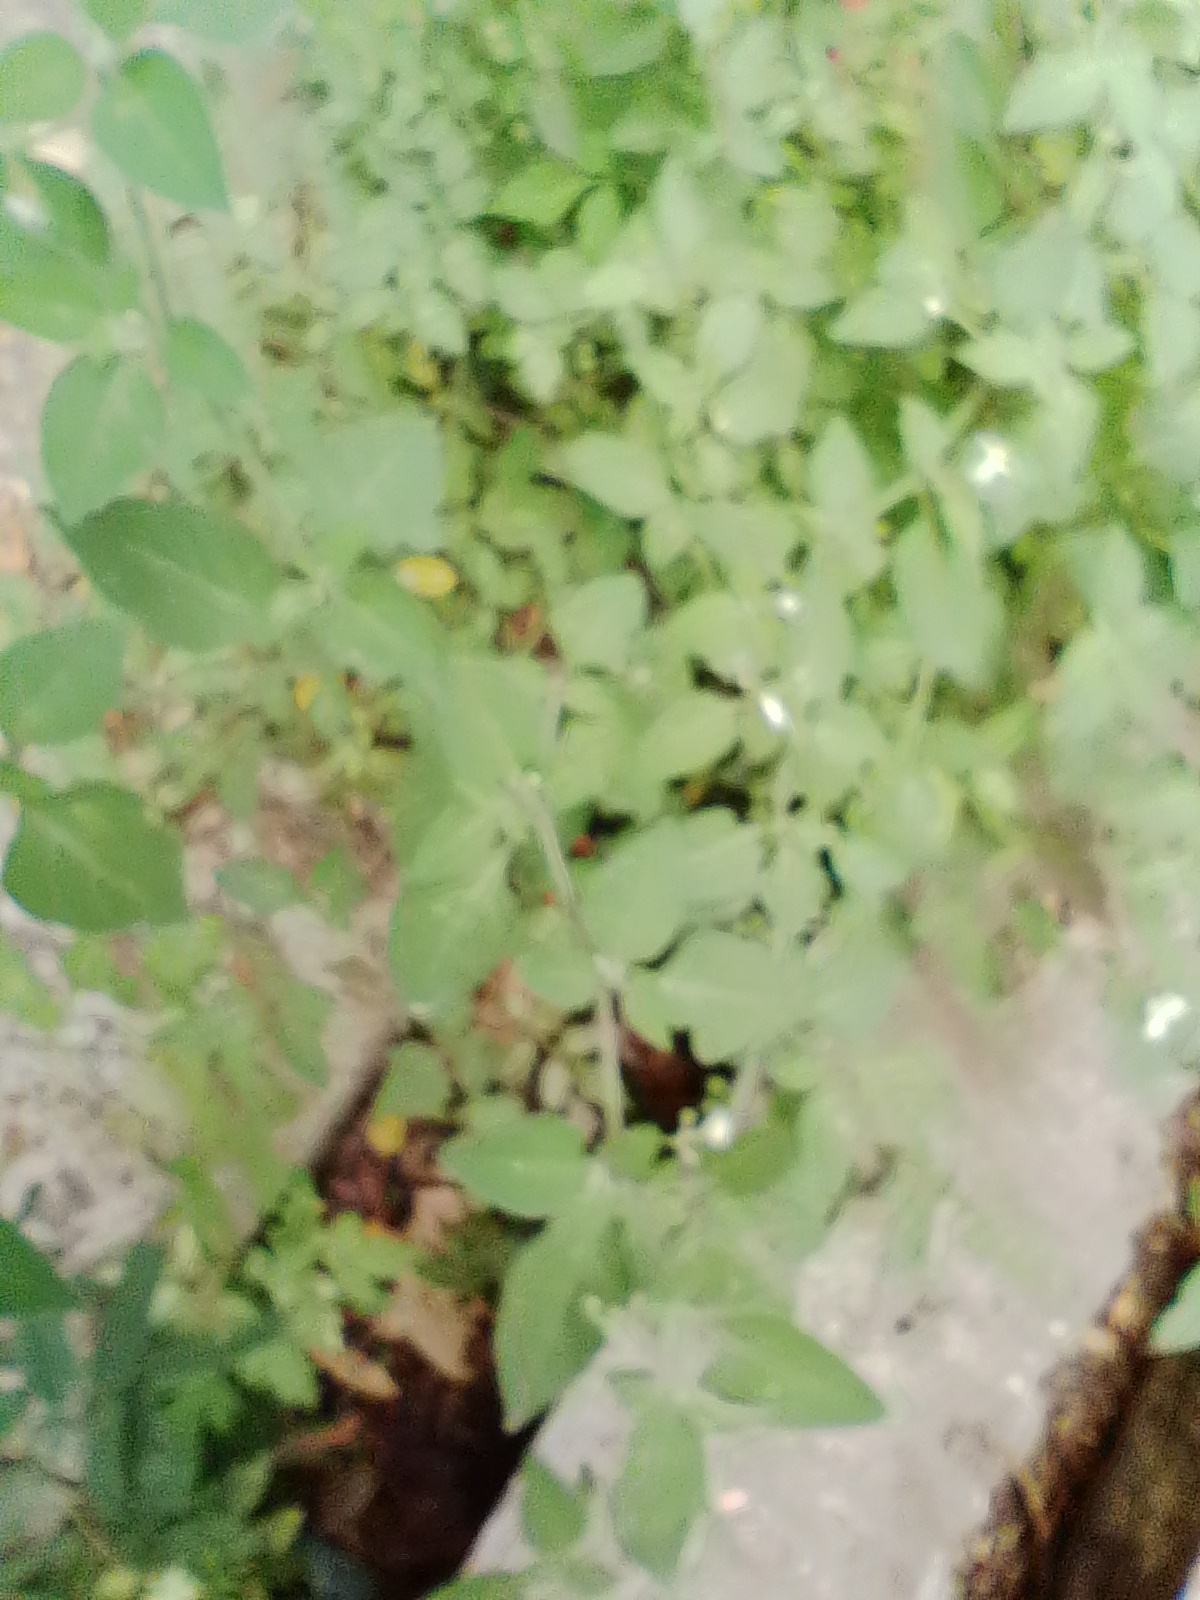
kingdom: Plantae
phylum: Tracheophyta
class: Magnoliopsida
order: Solanales
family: Solanaceae
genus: Solanum
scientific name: Solanum chenopodioides
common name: Tall nightshade
